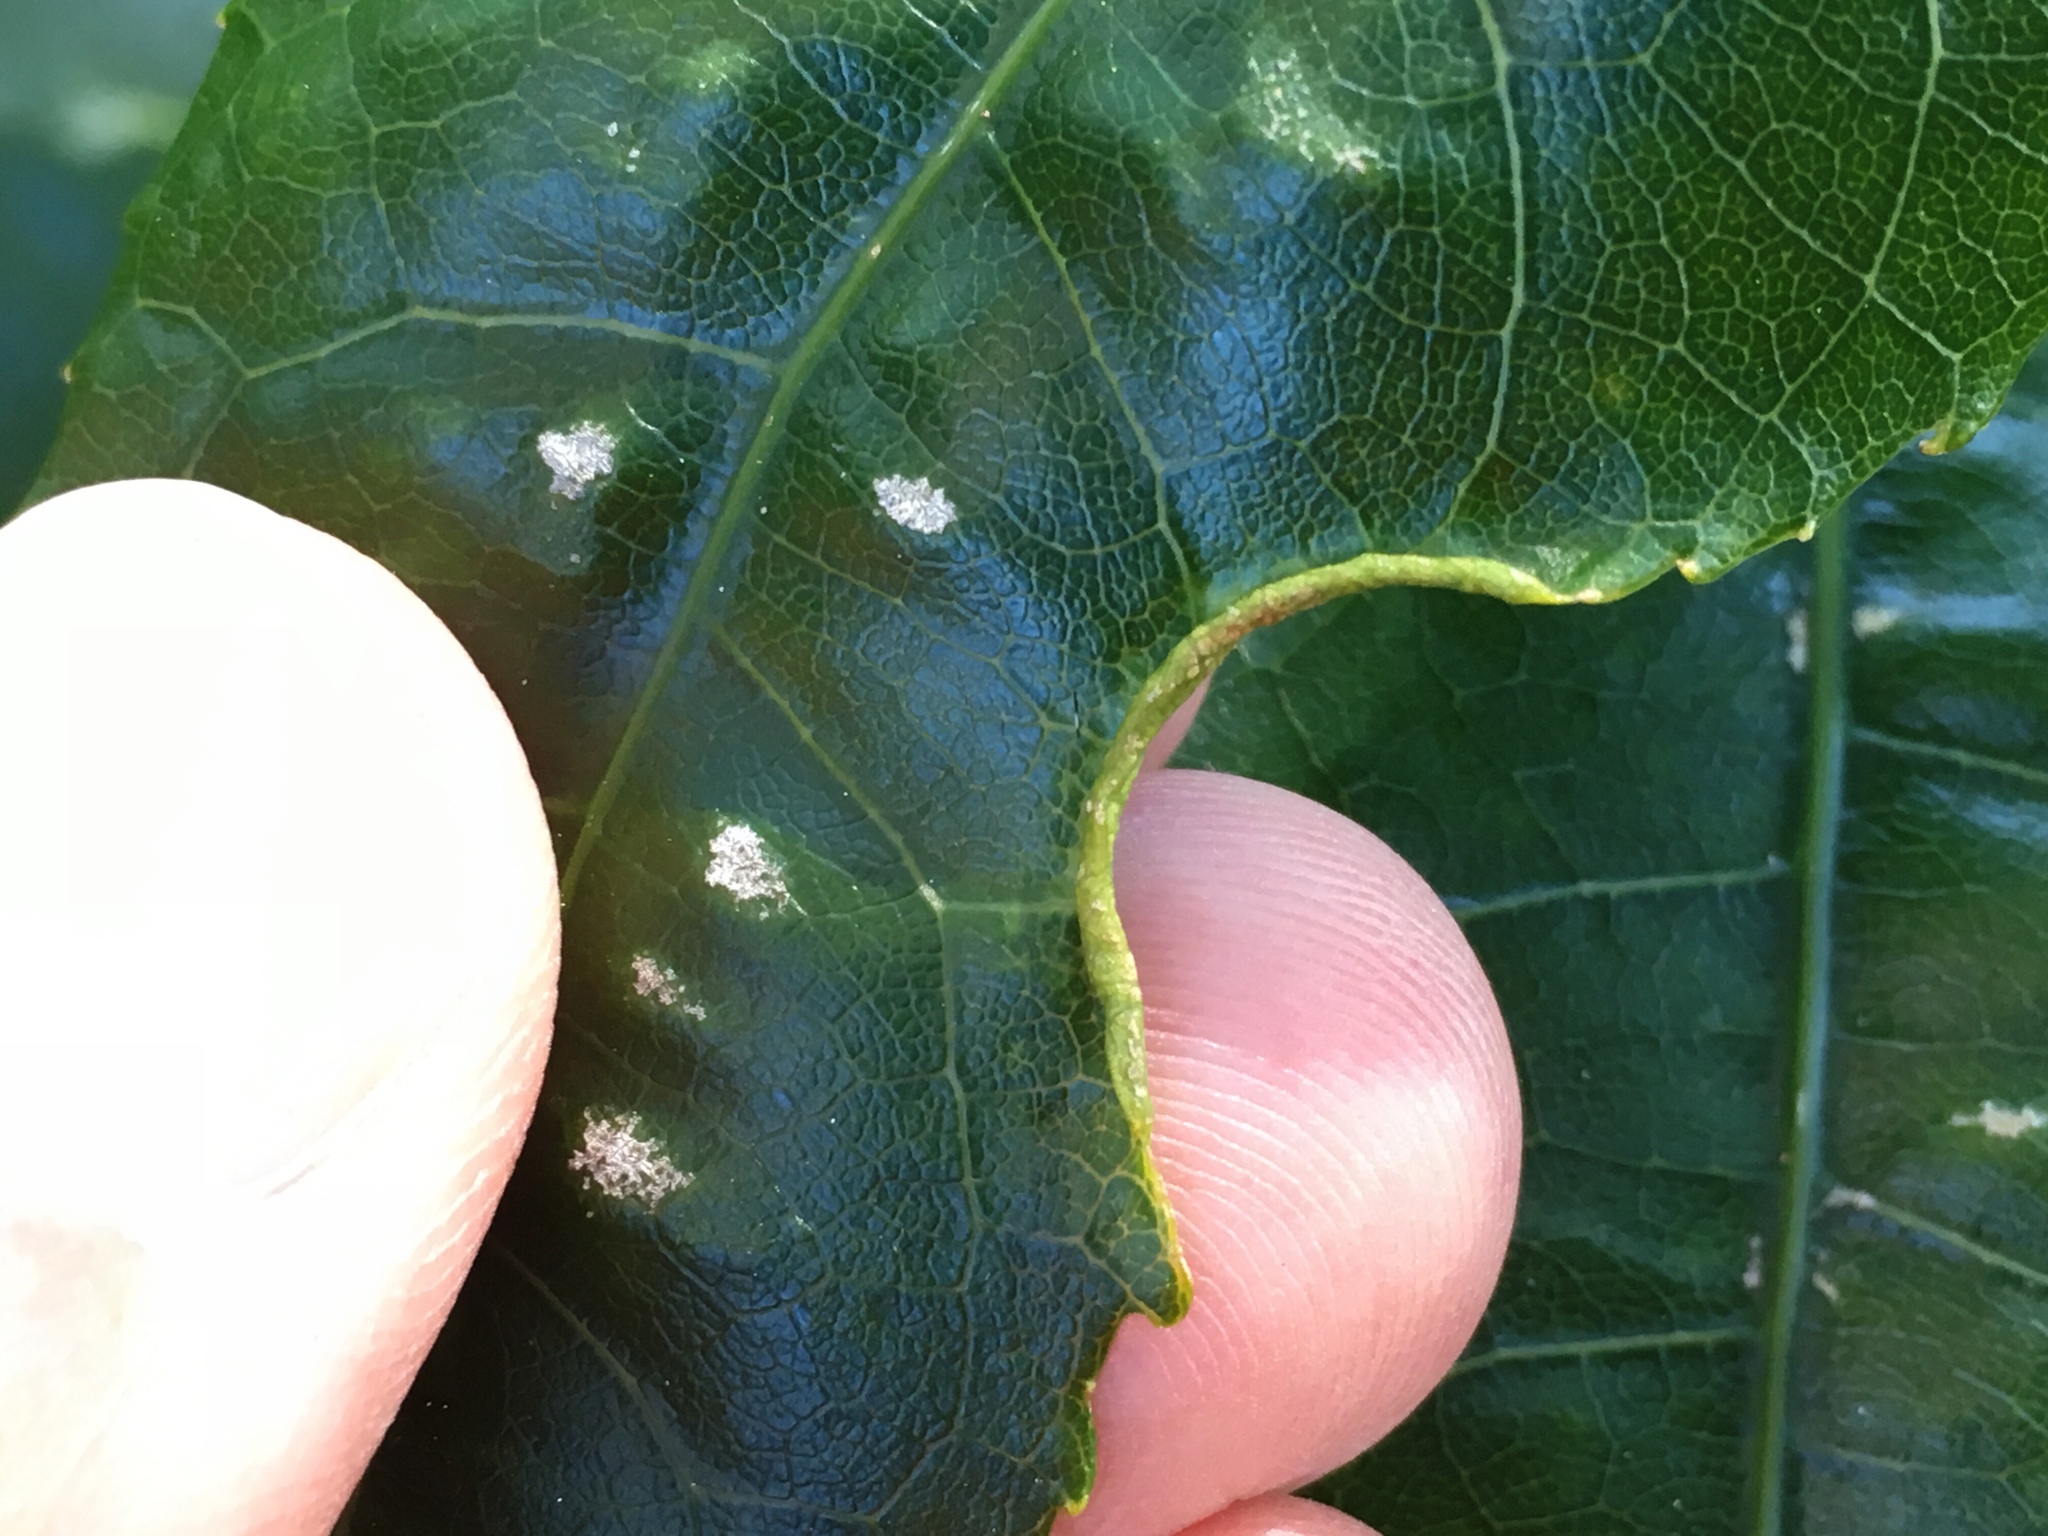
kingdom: Animalia
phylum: Arthropoda
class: Arachnida
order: Trombidiformes
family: Eriophyidae
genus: Aceria
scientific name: Aceria
